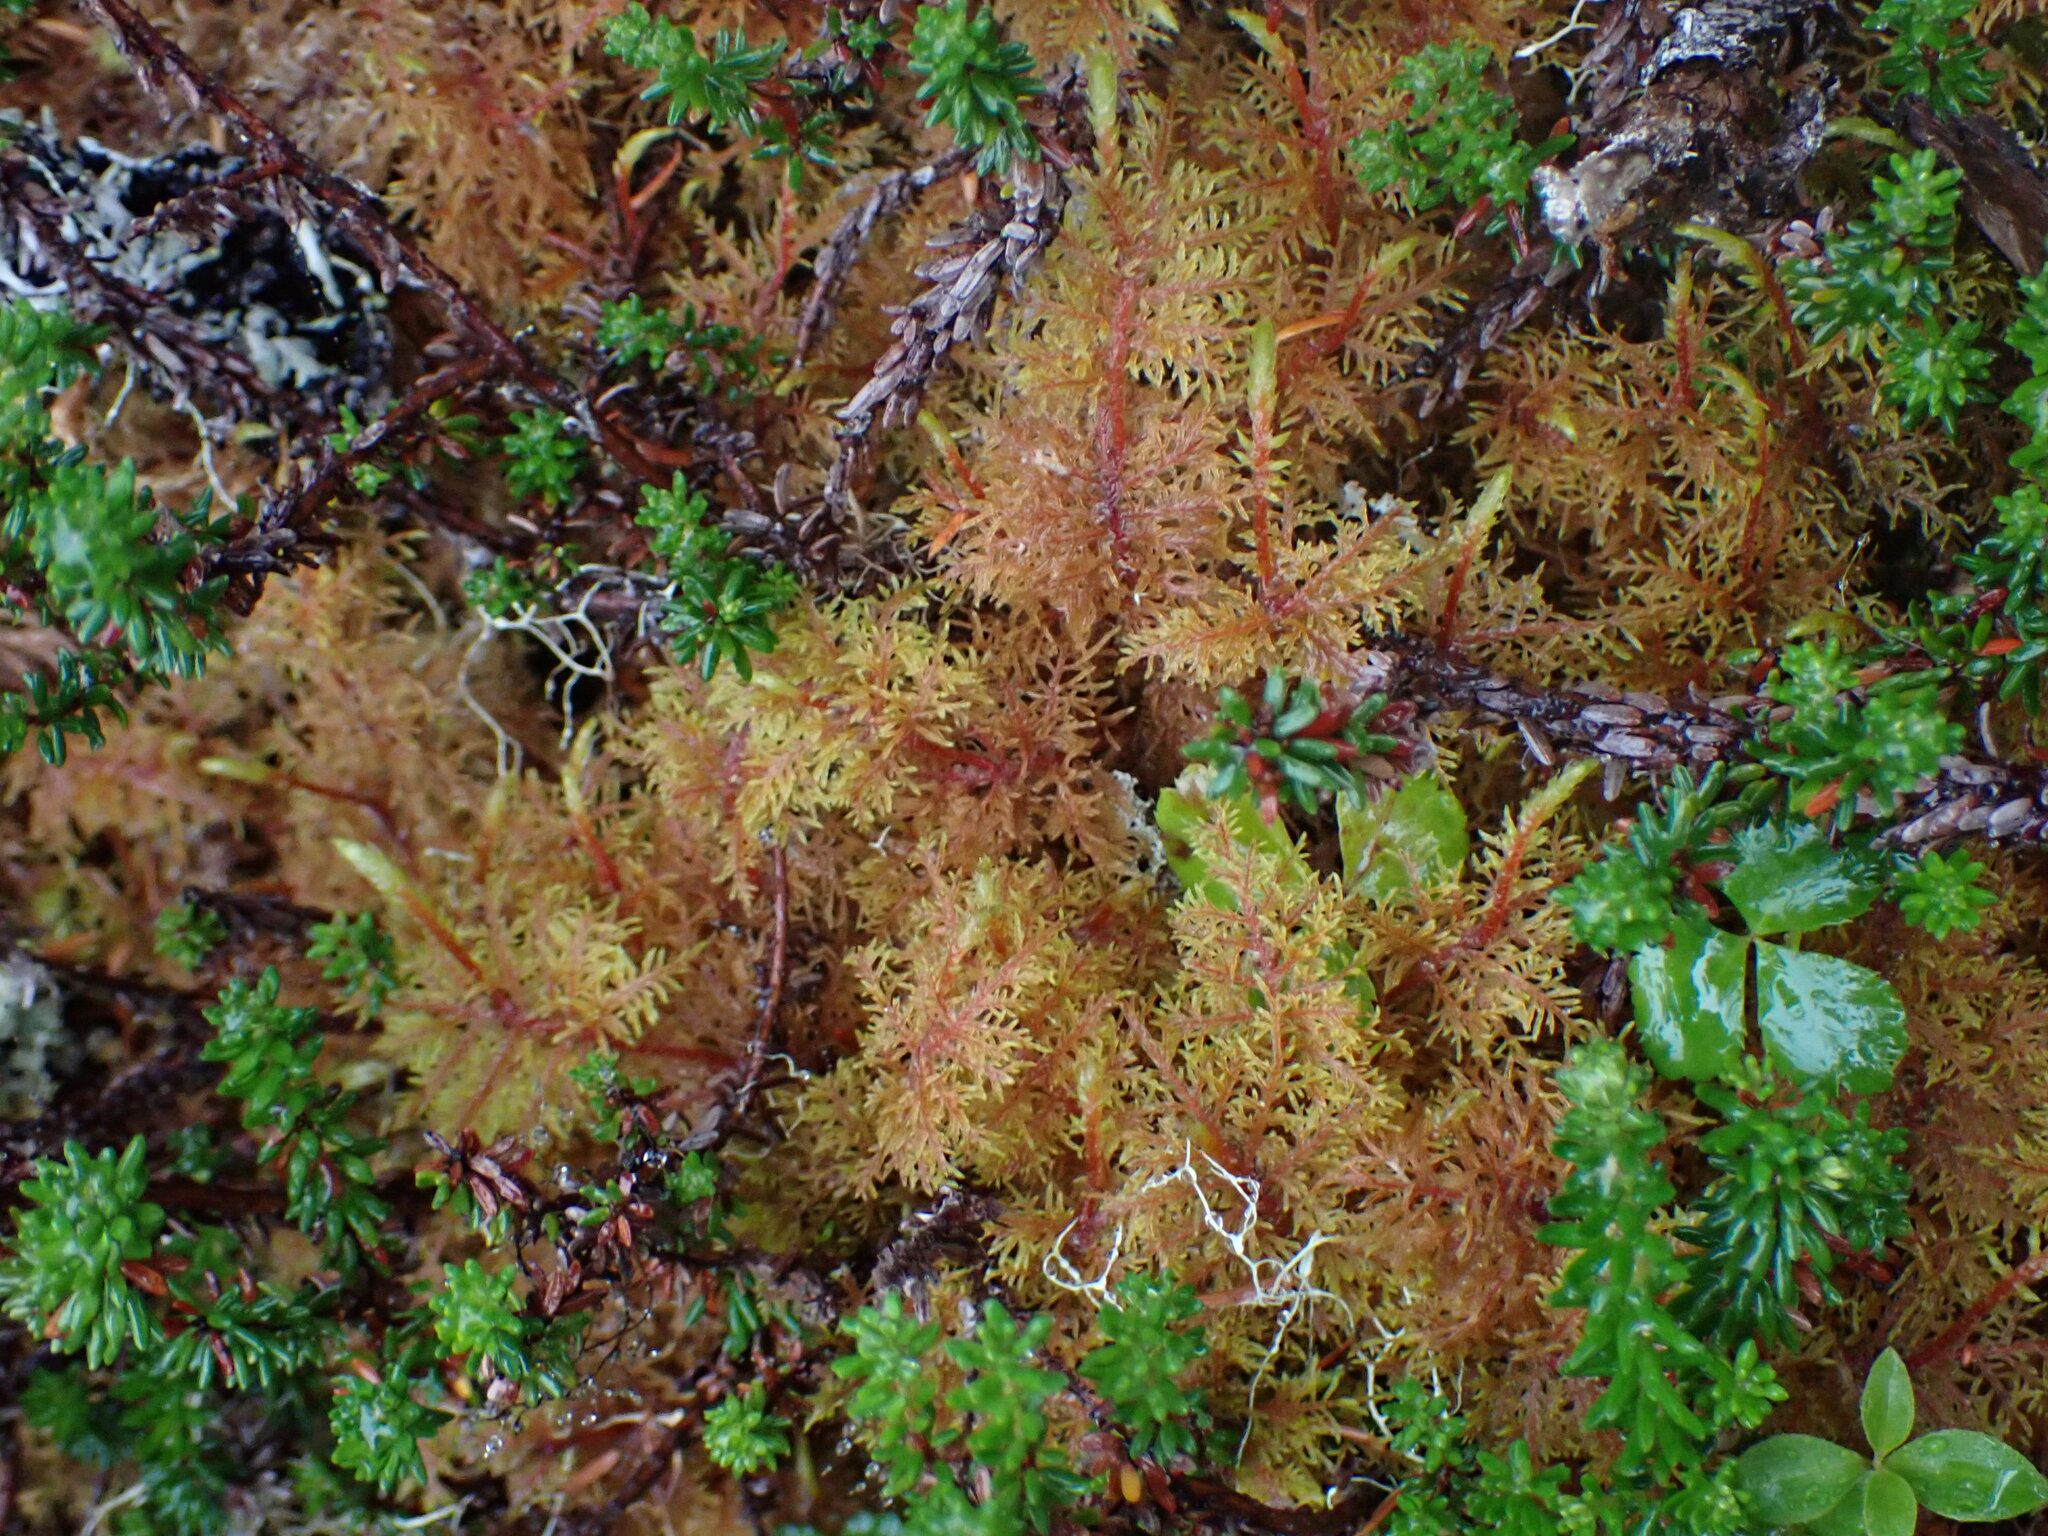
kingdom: Plantae
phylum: Bryophyta
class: Bryopsida
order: Hypnales
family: Hylocomiaceae
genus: Hylocomium
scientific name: Hylocomium splendens
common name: Stairstep moss
